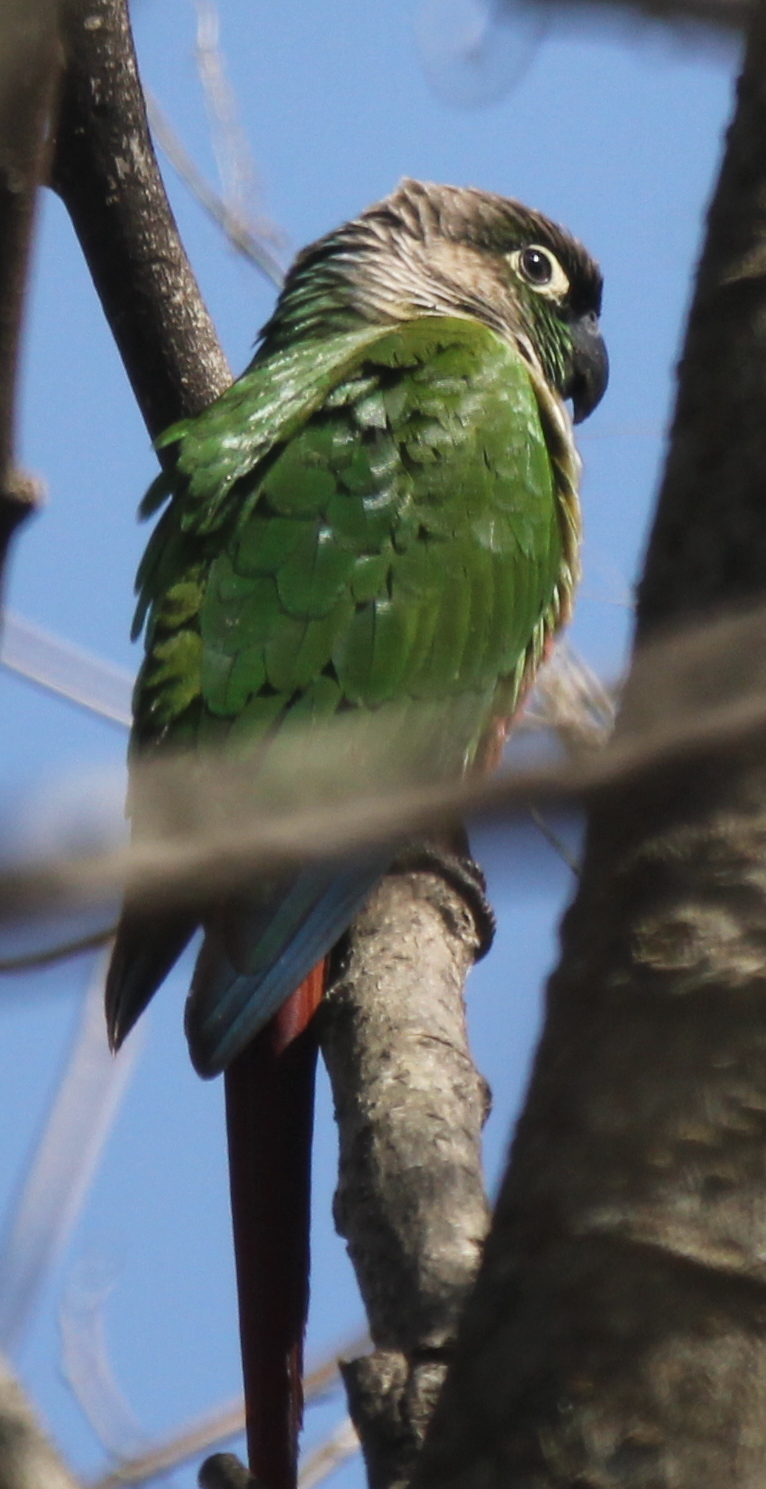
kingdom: Animalia
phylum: Chordata
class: Aves
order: Psittaciformes
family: Psittacidae
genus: Pyrrhura
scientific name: Pyrrhura molinae
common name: Green-cheeked parakeet
